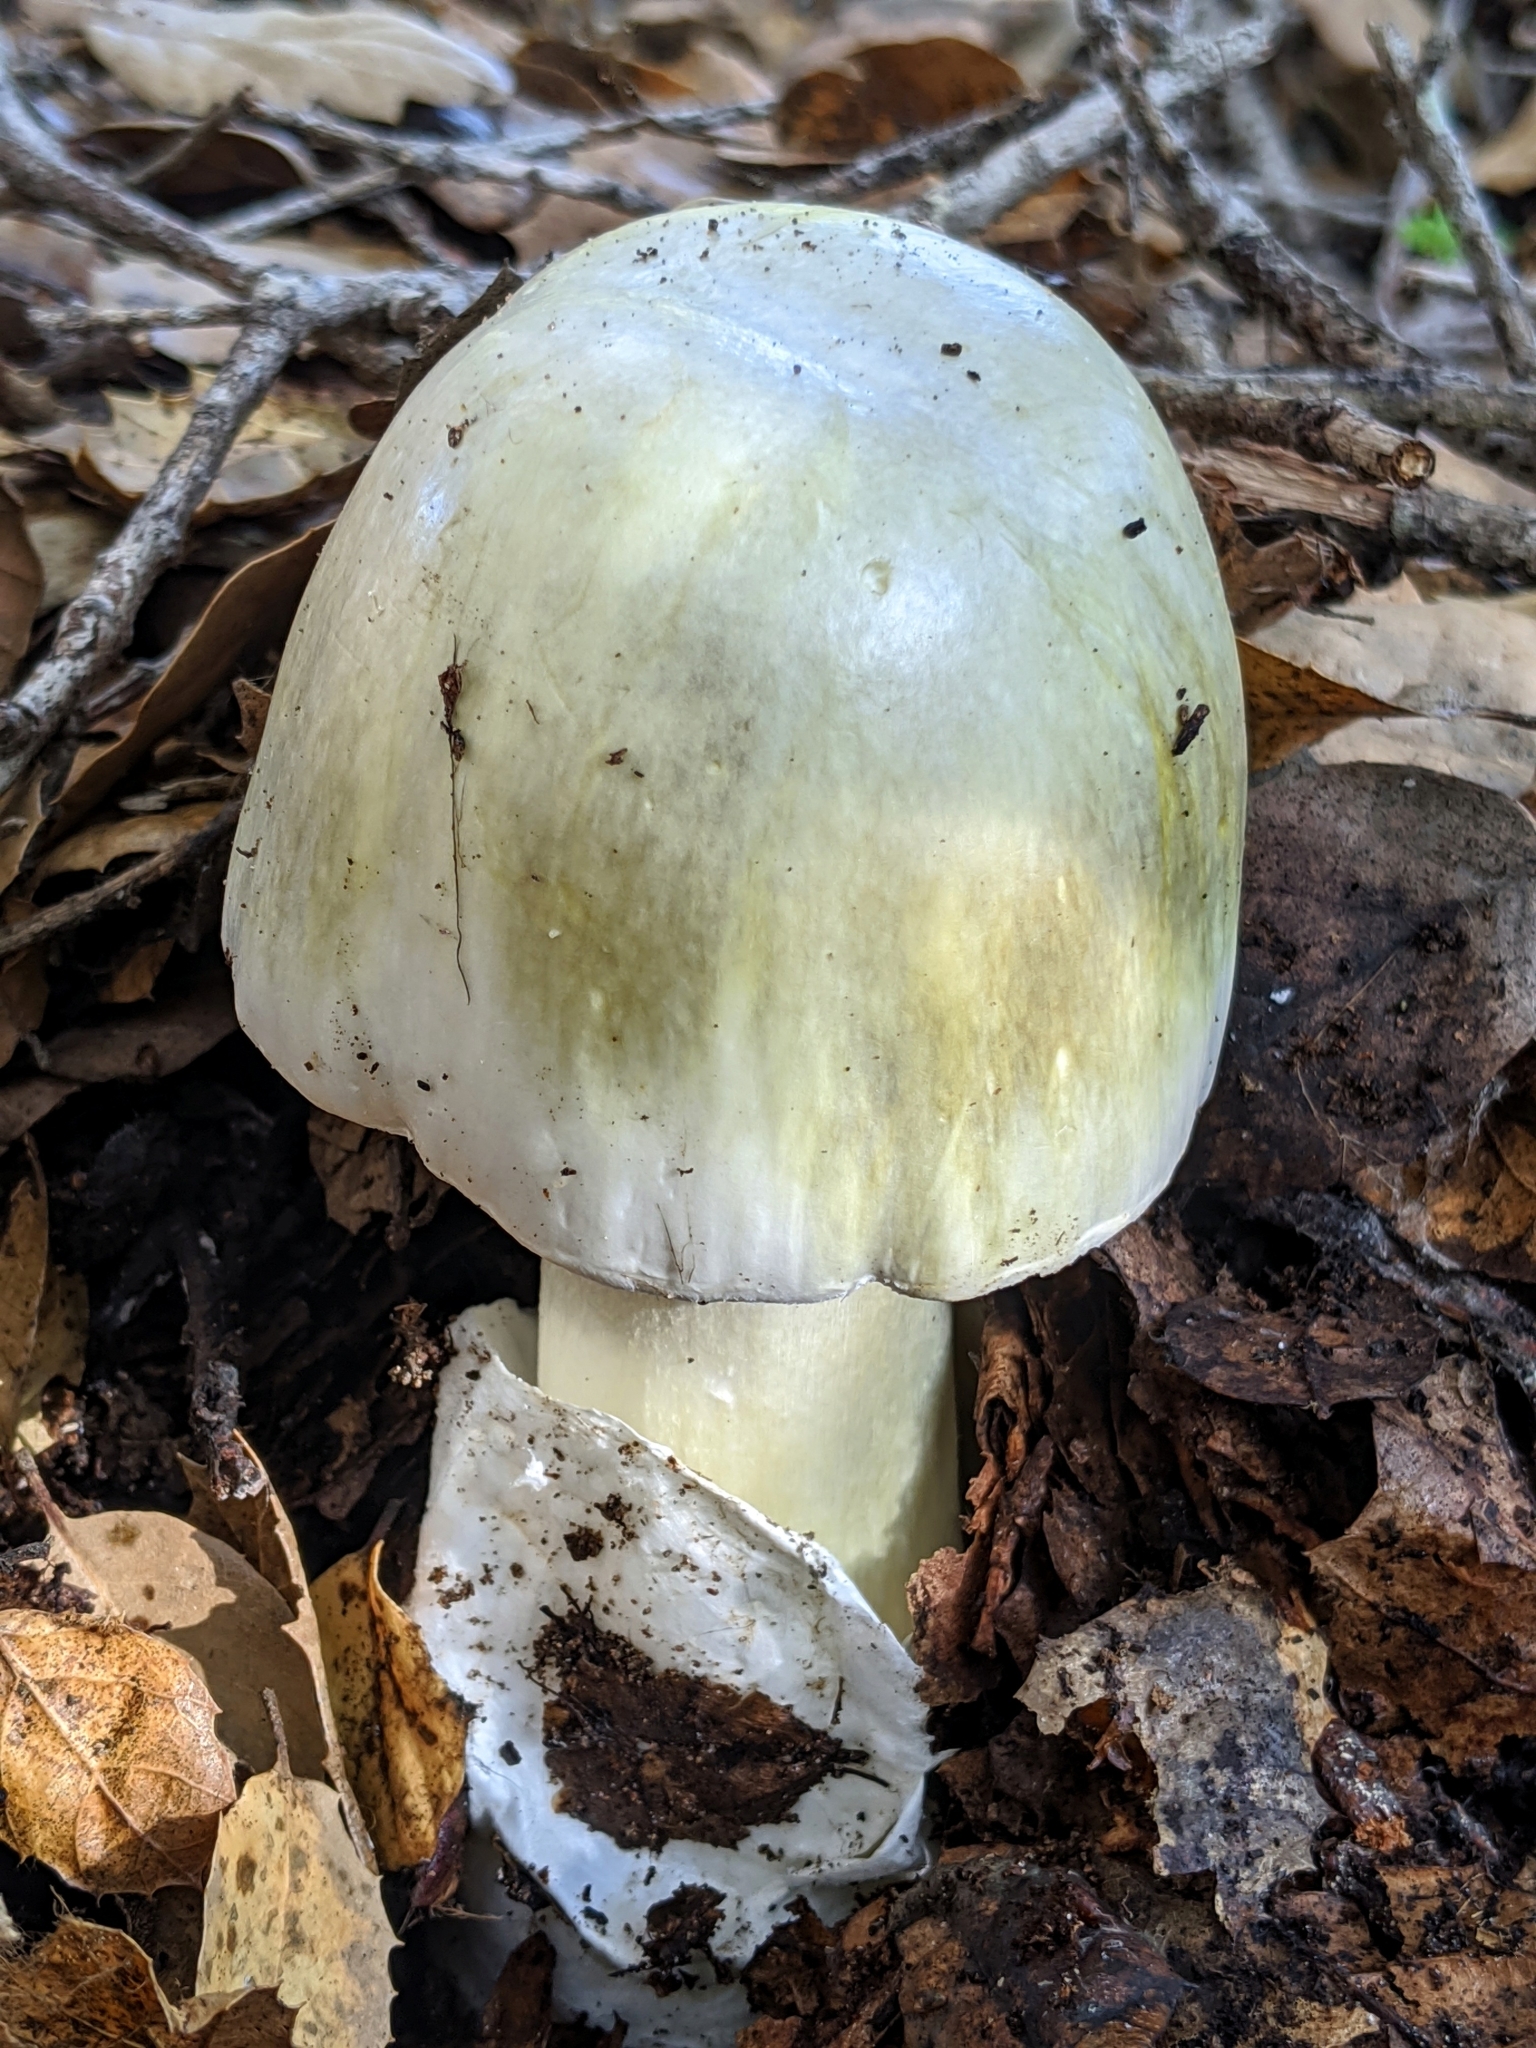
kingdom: Fungi
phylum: Basidiomycota
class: Agaricomycetes
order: Agaricales
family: Amanitaceae
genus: Amanita
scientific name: Amanita phalloides
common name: Death cap
